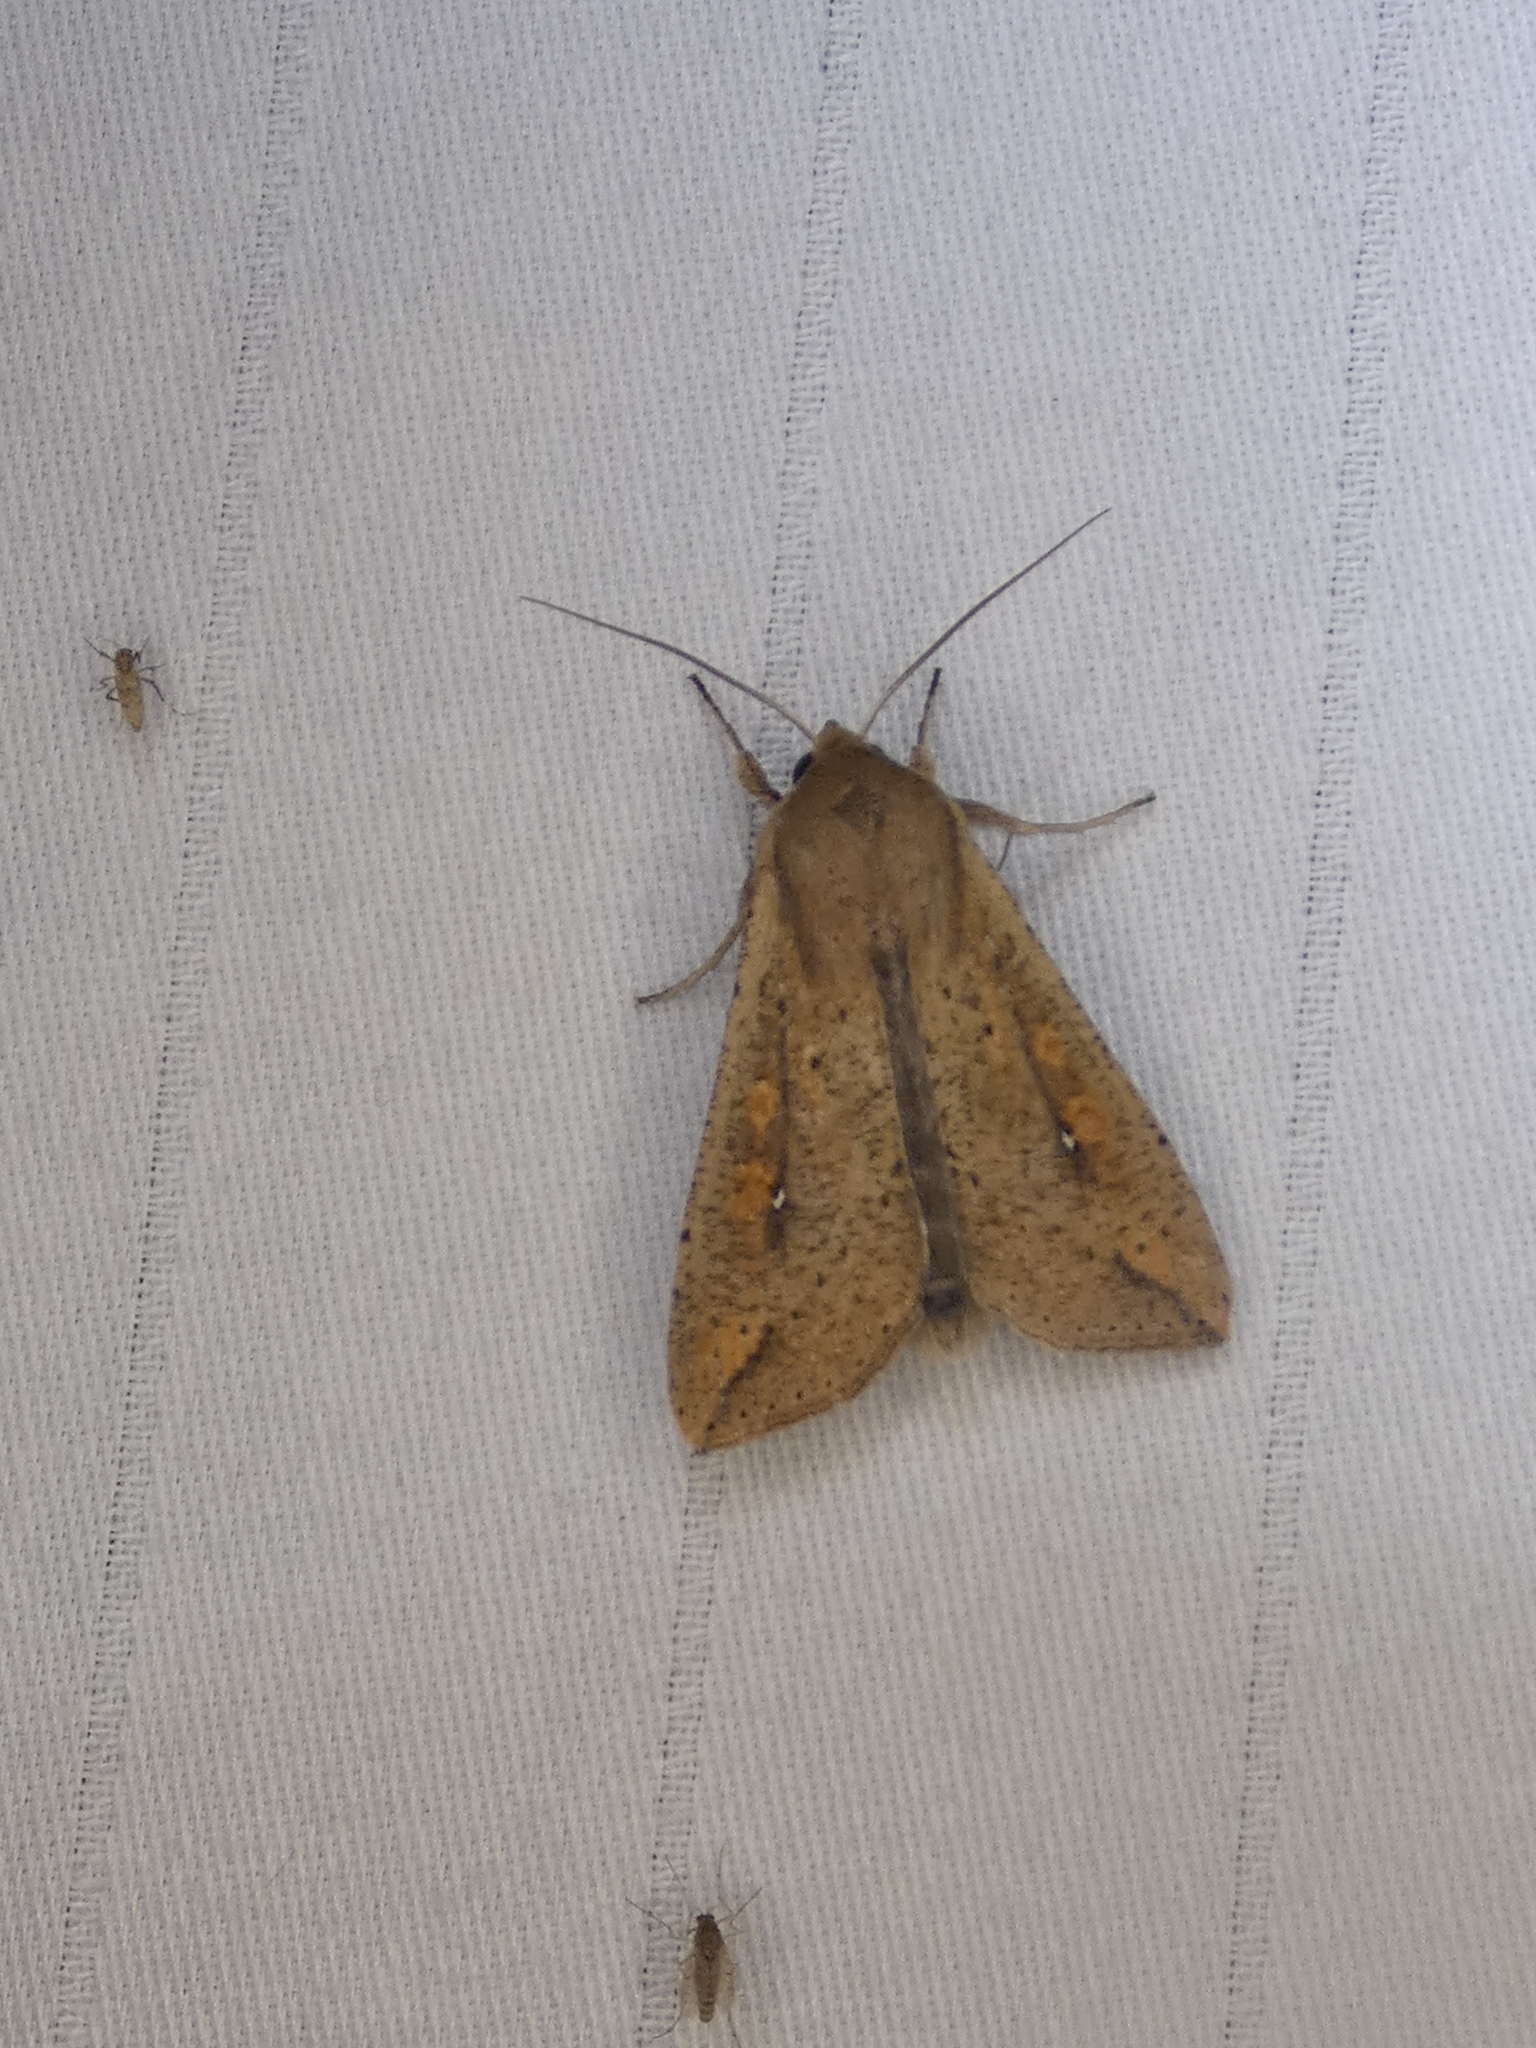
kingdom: Animalia
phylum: Arthropoda
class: Insecta
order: Lepidoptera
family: Noctuidae
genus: Mythimna
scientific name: Mythimna unipuncta
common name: White-speck
